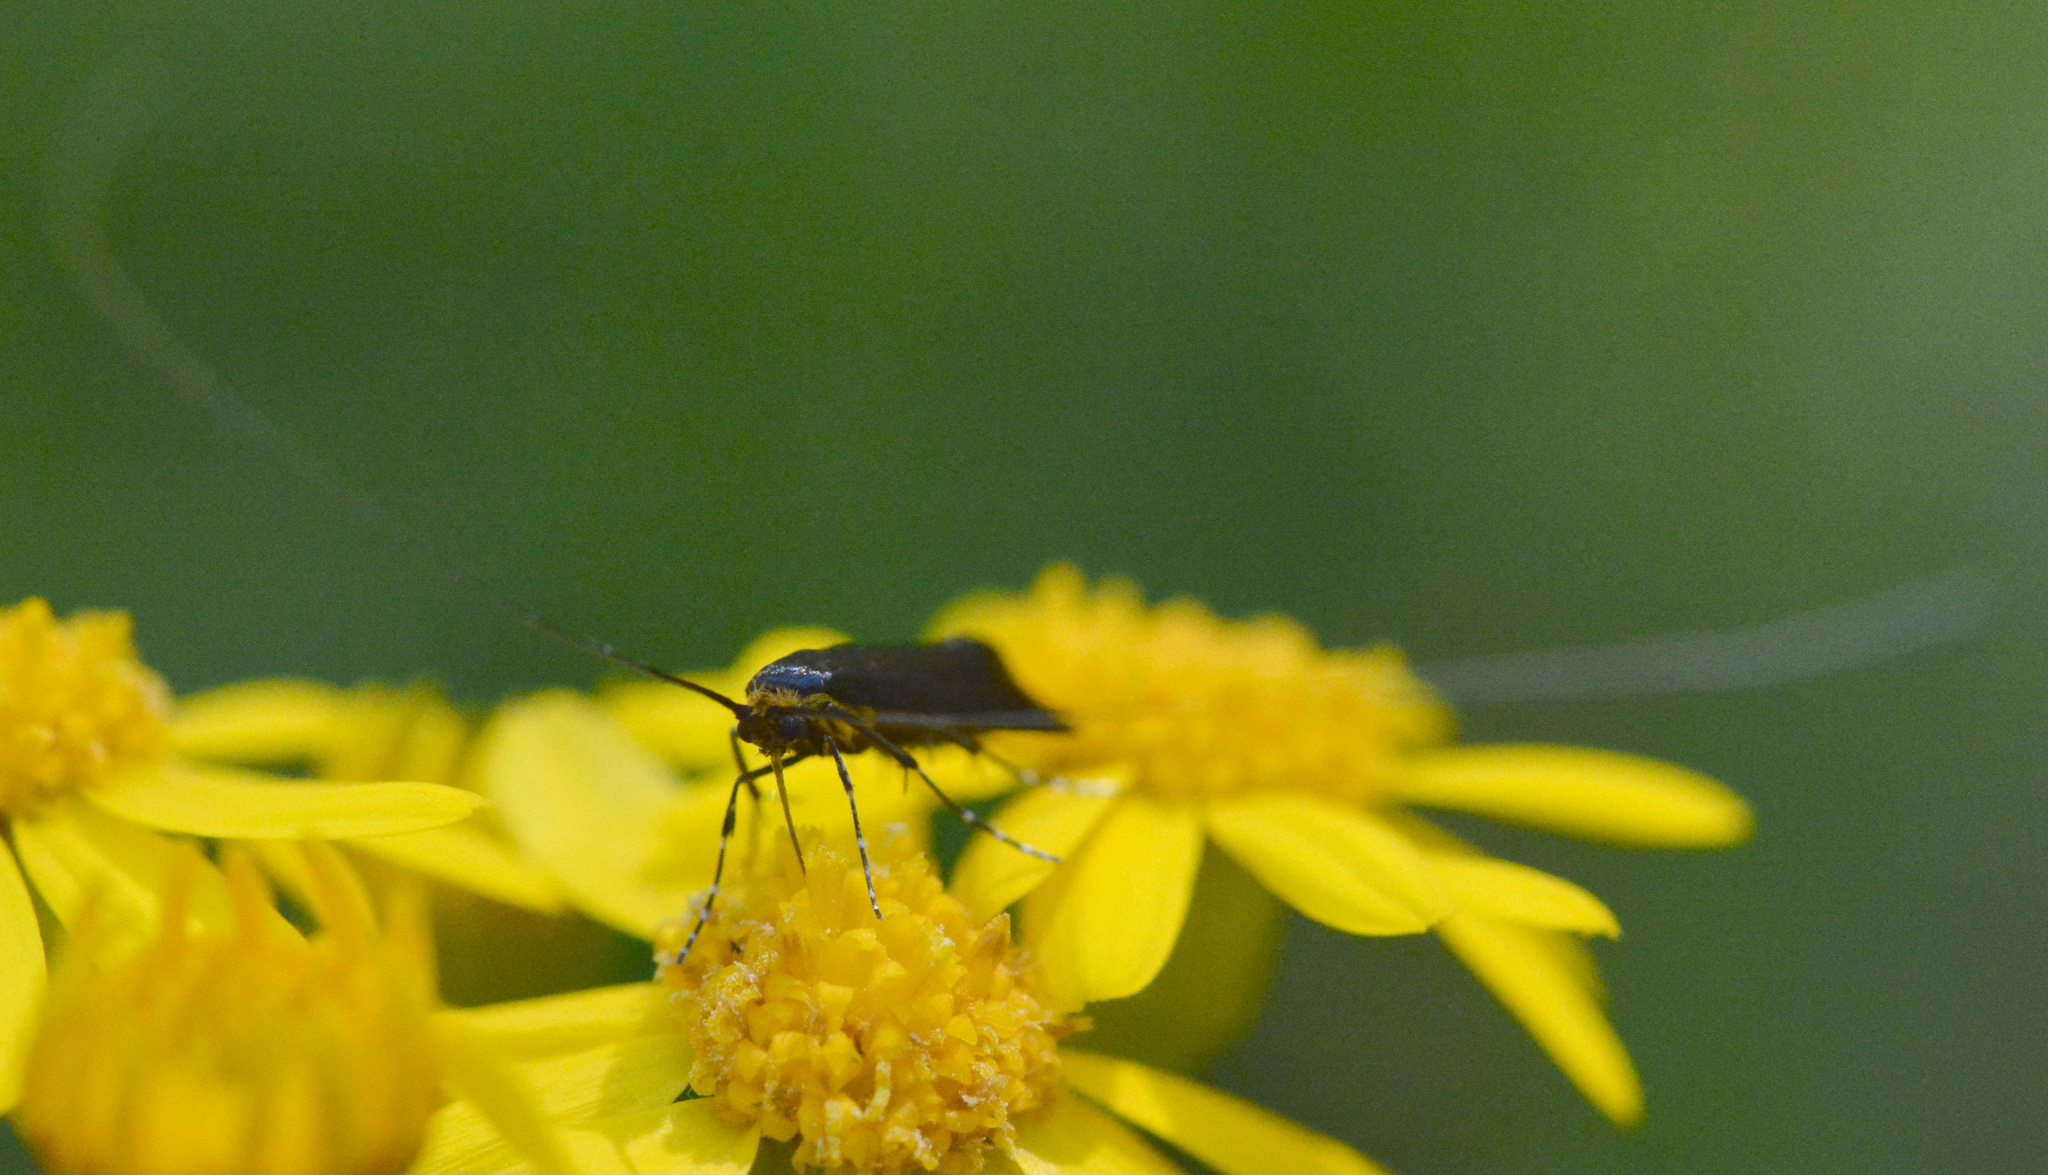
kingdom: Animalia
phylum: Arthropoda
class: Insecta
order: Lepidoptera
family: Adelidae
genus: Adela
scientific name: Adela caeruleella
